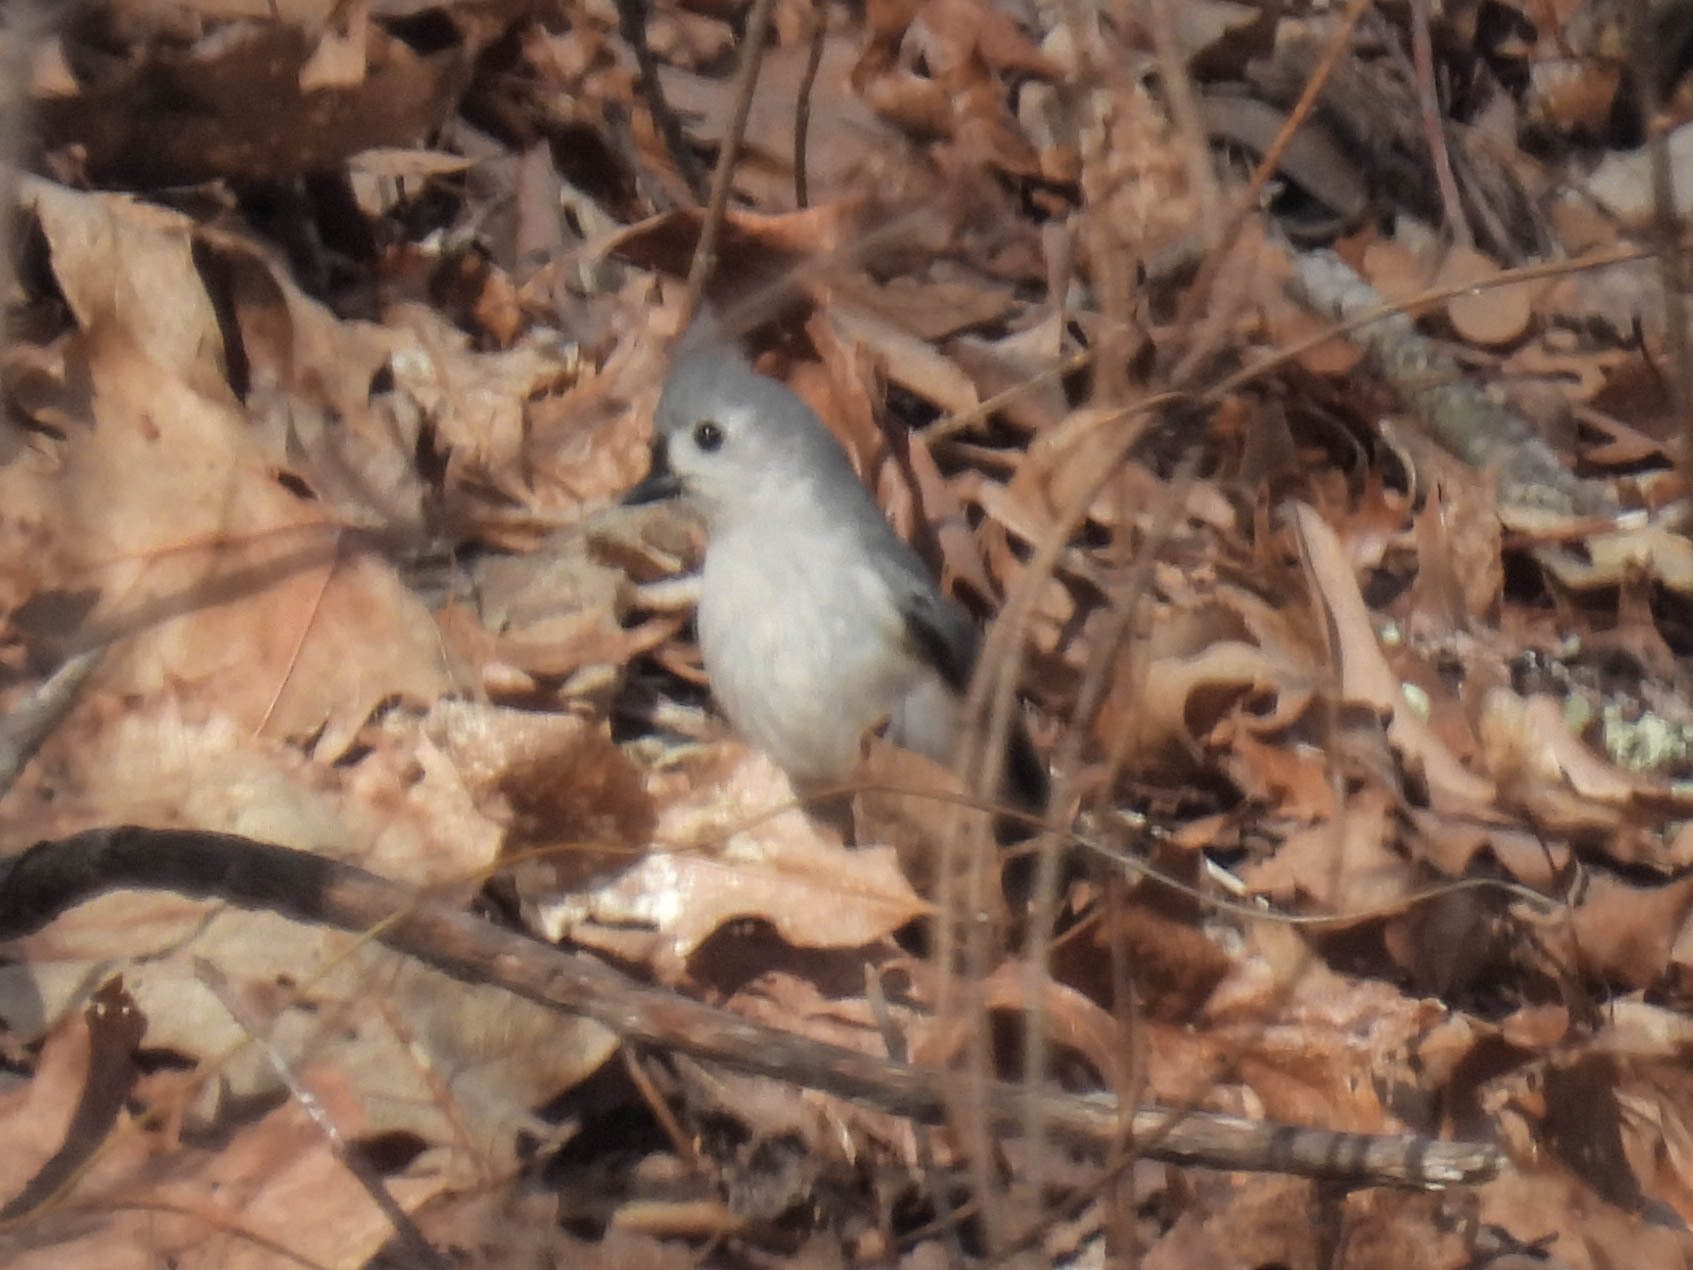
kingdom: Animalia
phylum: Chordata
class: Aves
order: Passeriformes
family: Paridae
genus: Baeolophus
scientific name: Baeolophus bicolor
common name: Tufted titmouse
